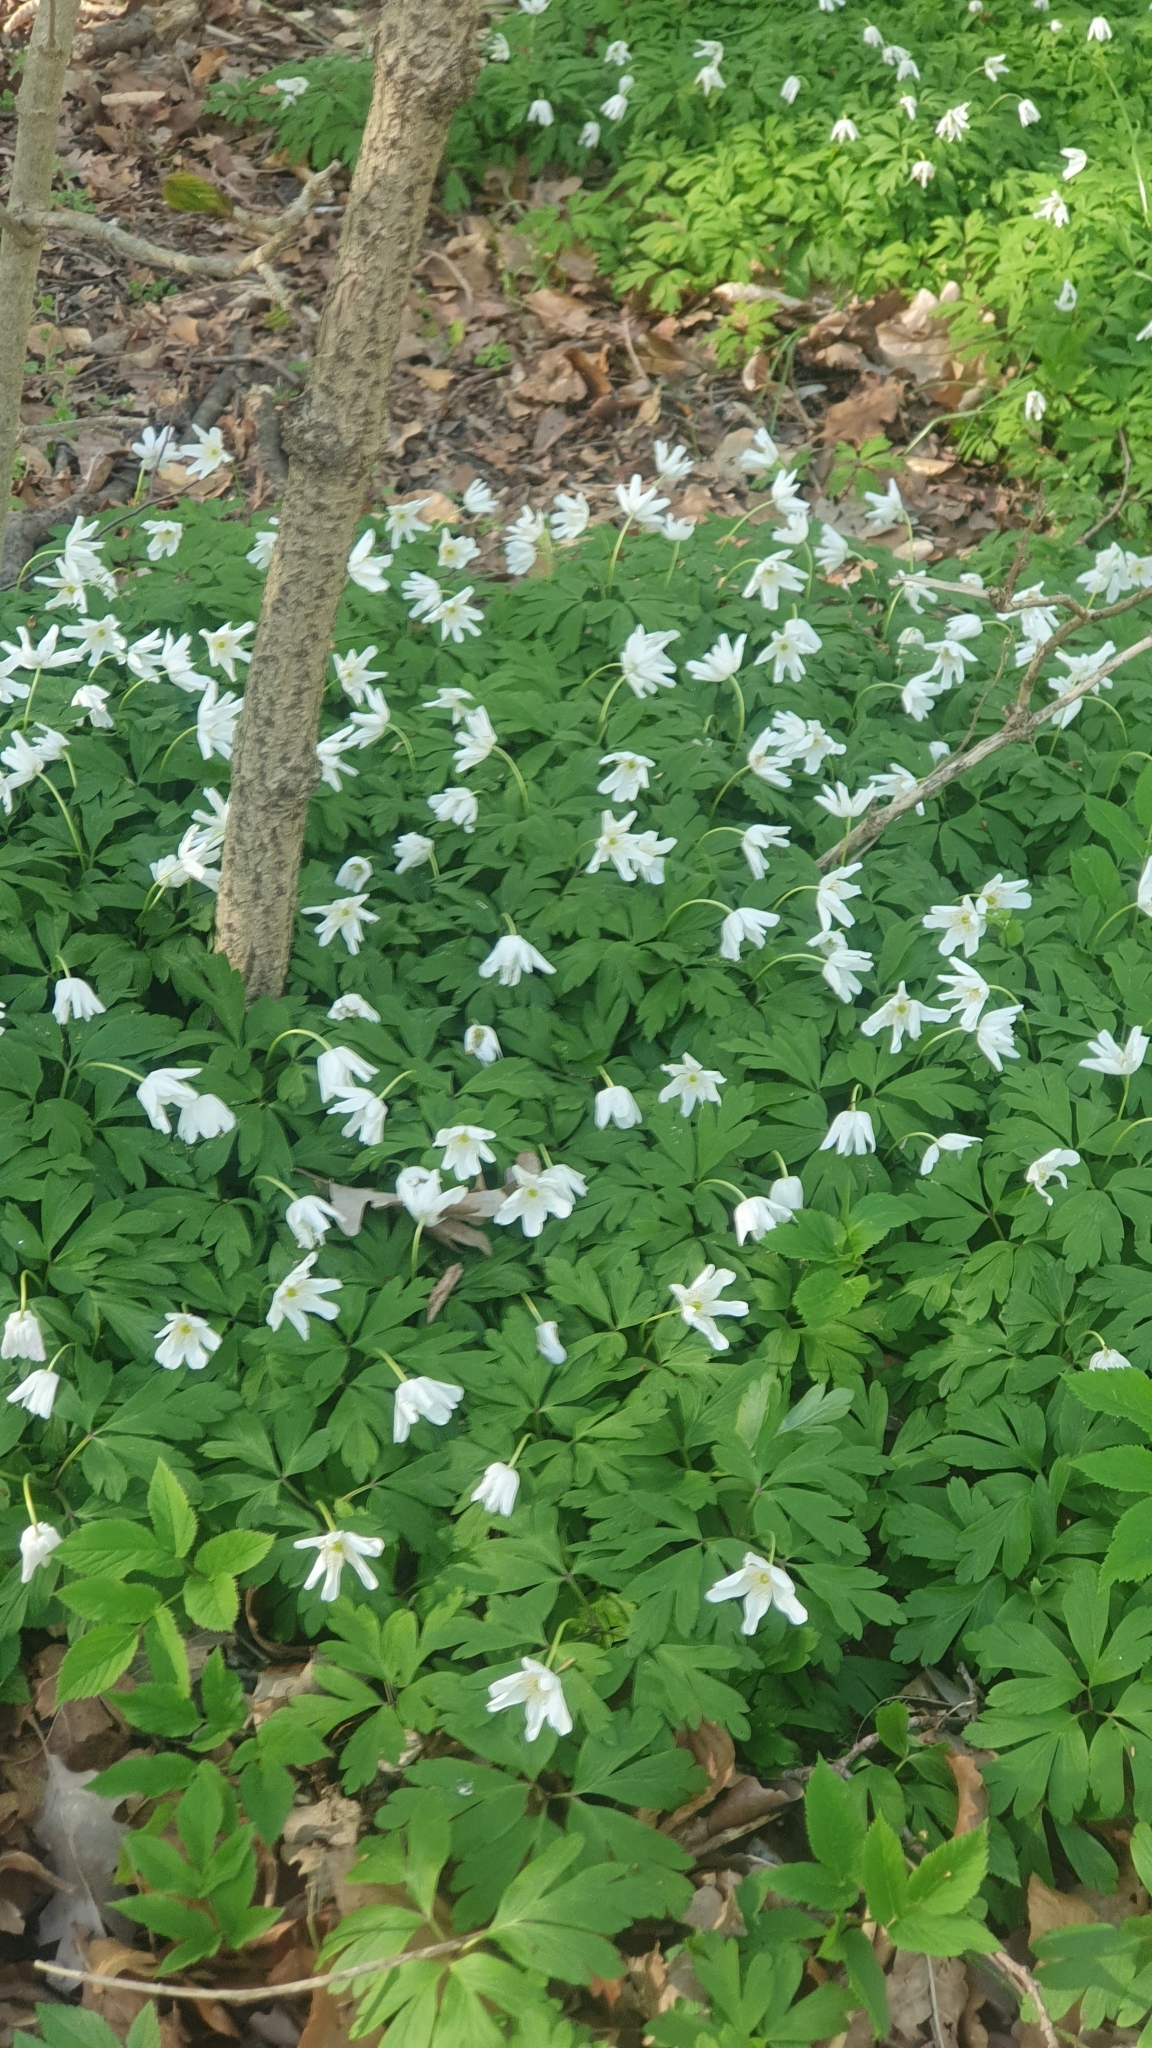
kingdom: Plantae
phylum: Tracheophyta
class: Magnoliopsida
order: Ranunculales
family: Ranunculaceae
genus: Anemone
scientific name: Anemone nemorosa
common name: Wood anemone
